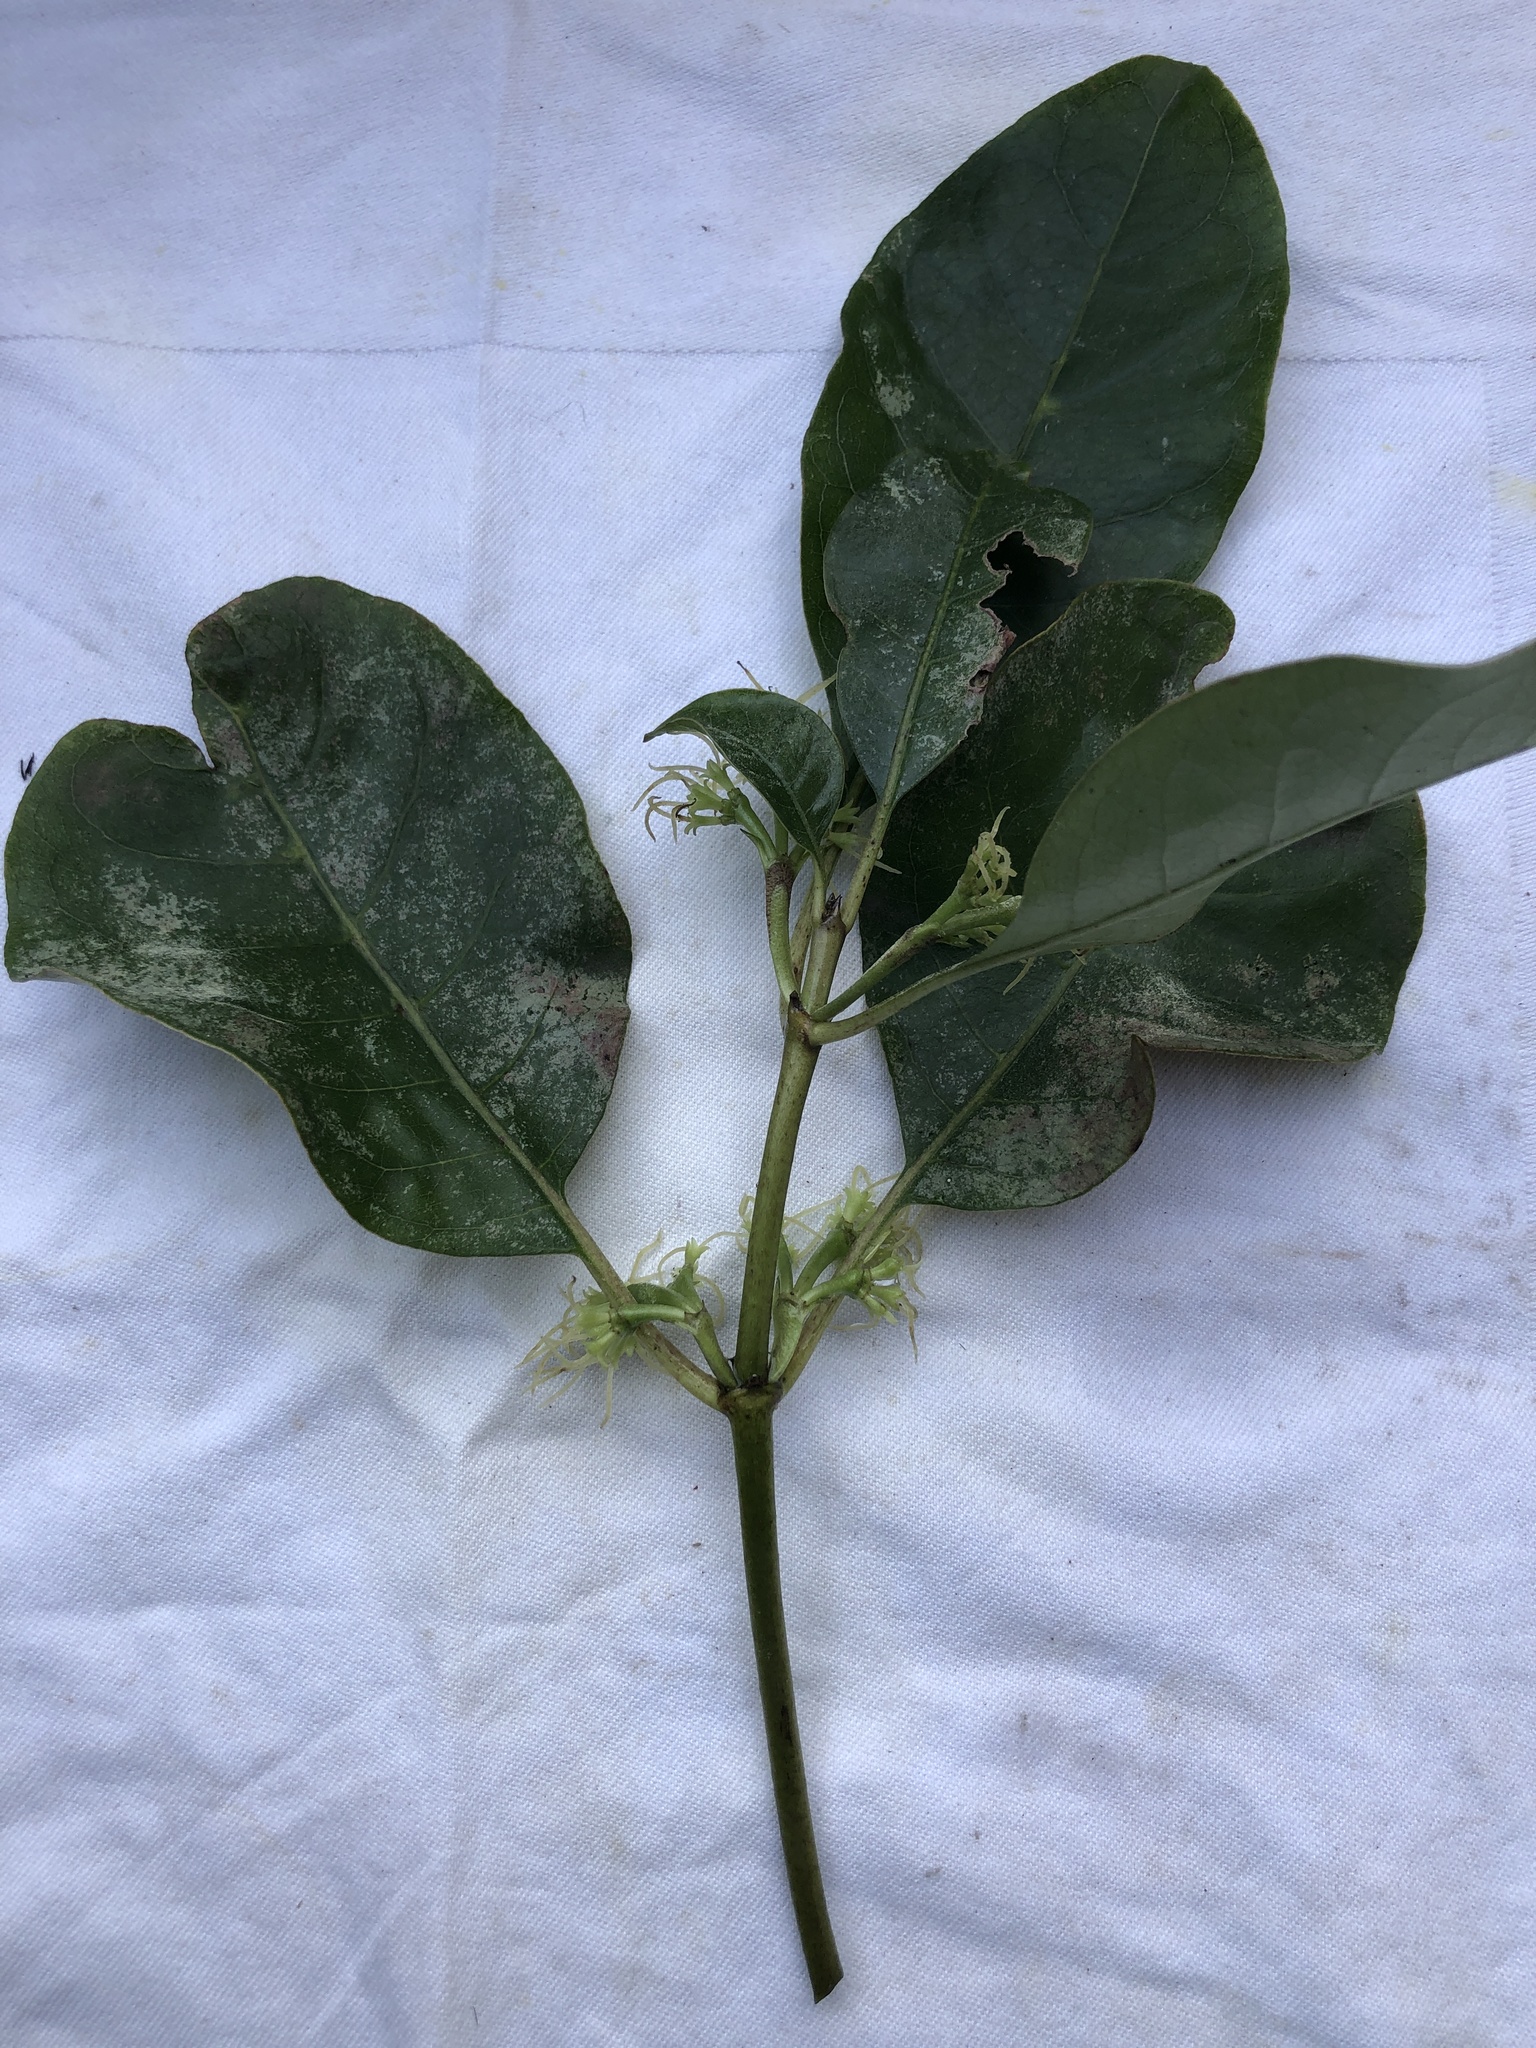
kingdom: Plantae
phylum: Tracheophyta
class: Magnoliopsida
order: Gentianales
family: Rubiaceae
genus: Coprosma
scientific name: Coprosma autumnalis
